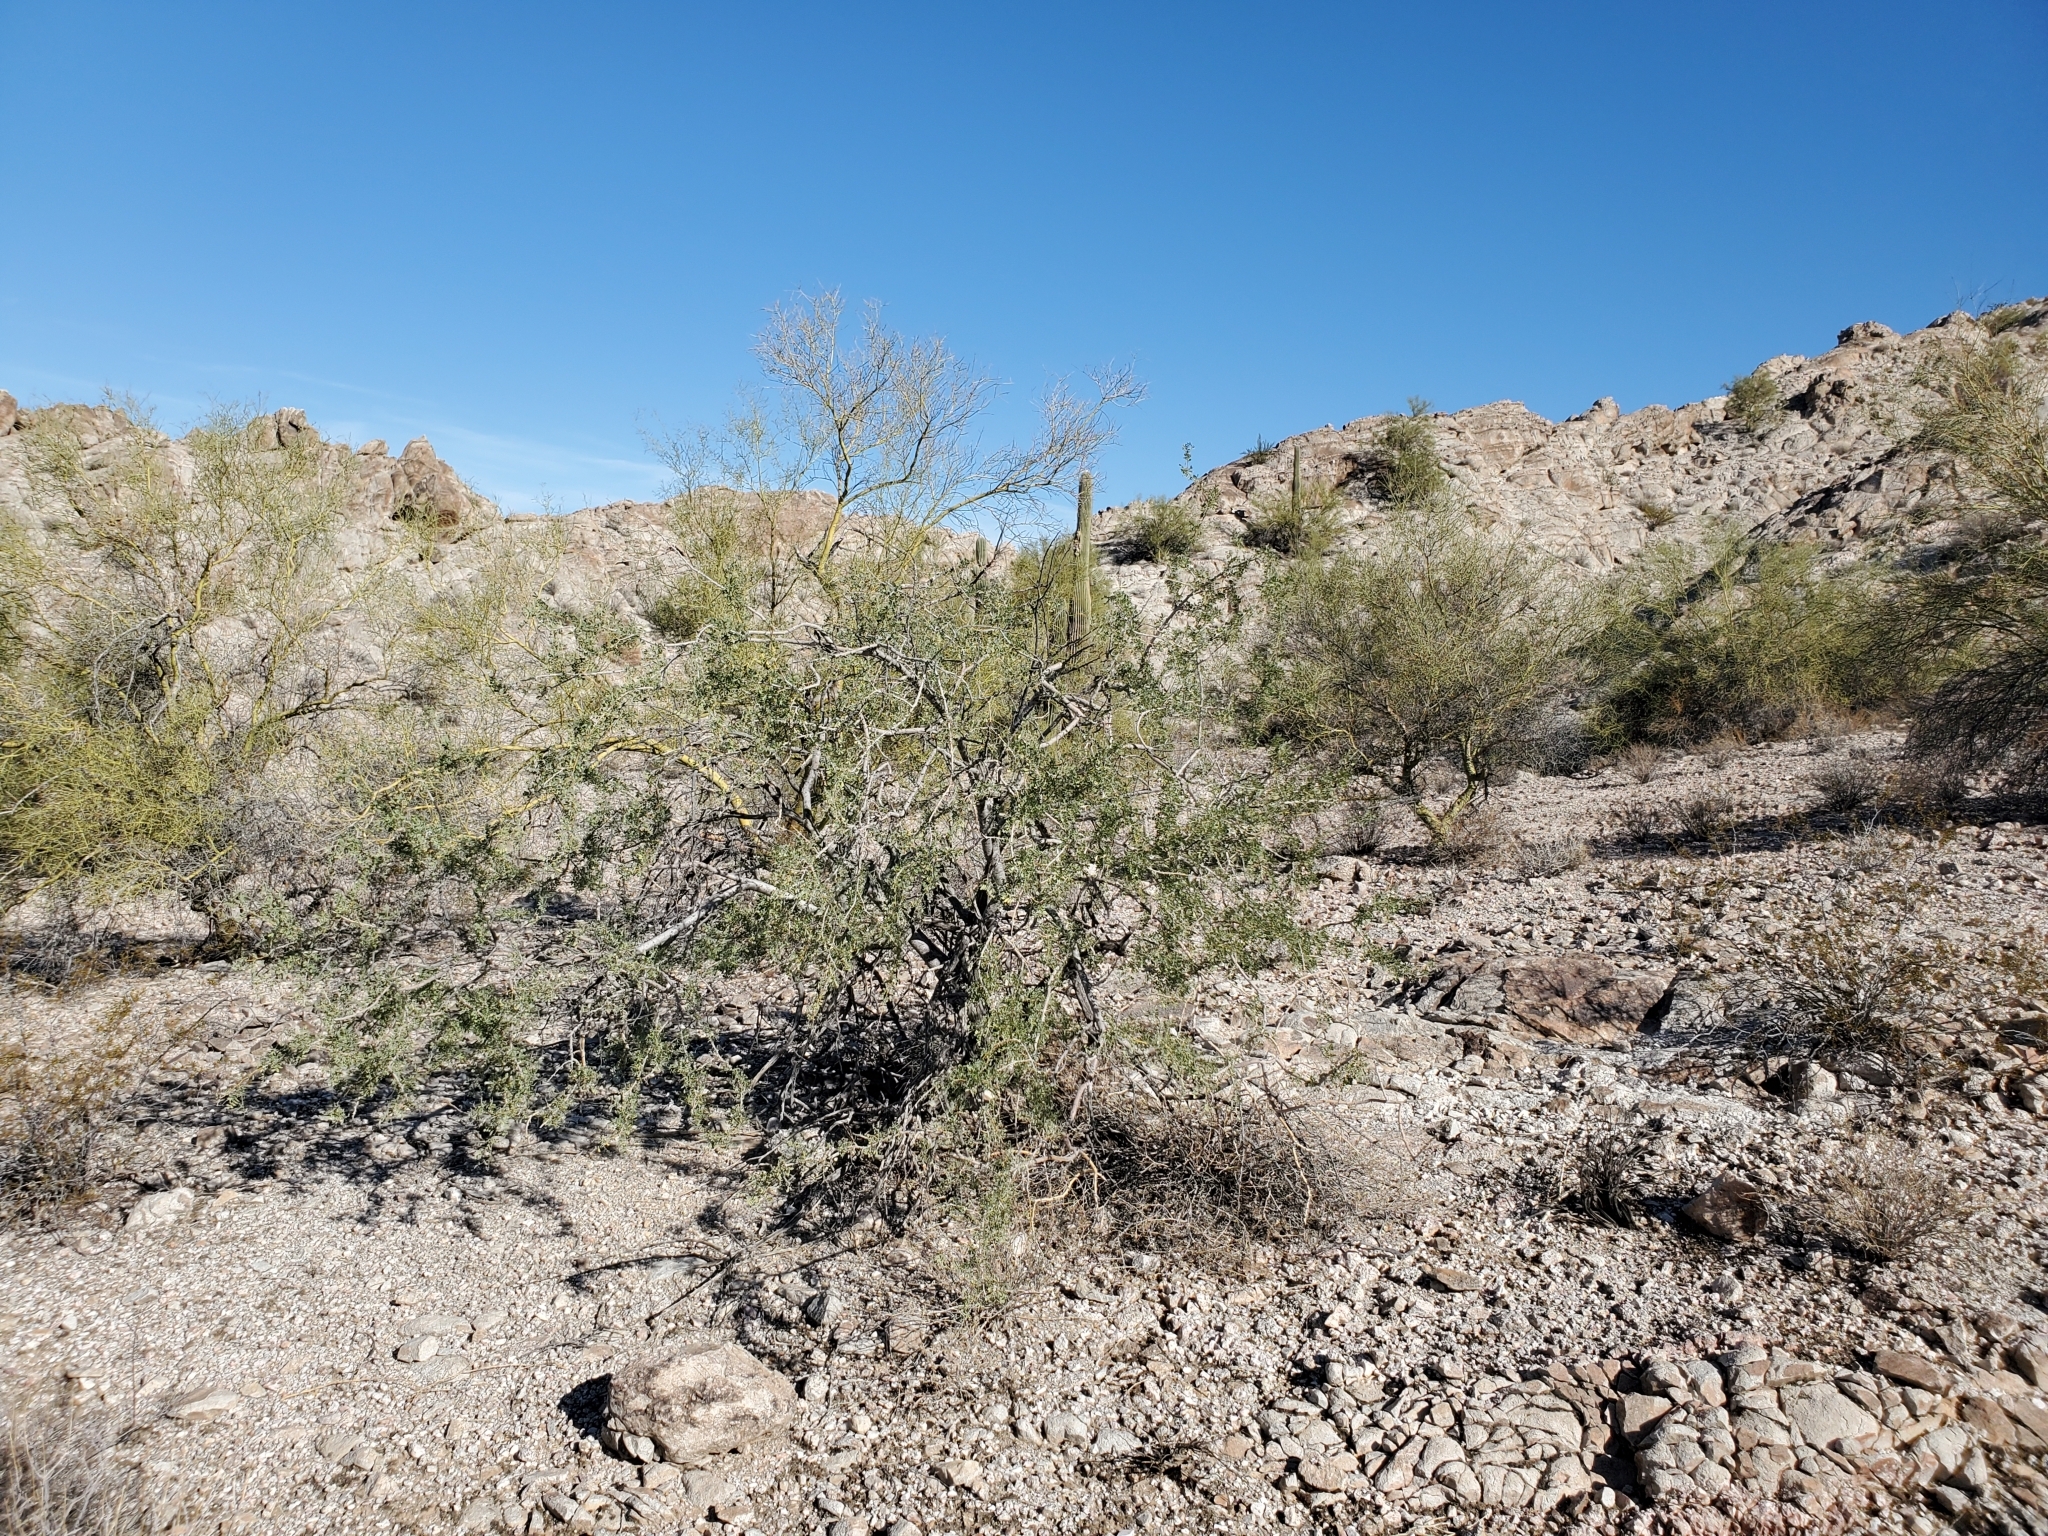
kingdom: Plantae
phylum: Tracheophyta
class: Magnoliopsida
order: Fabales
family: Fabaceae
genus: Olneya
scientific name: Olneya tesota
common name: Desert ironwood
